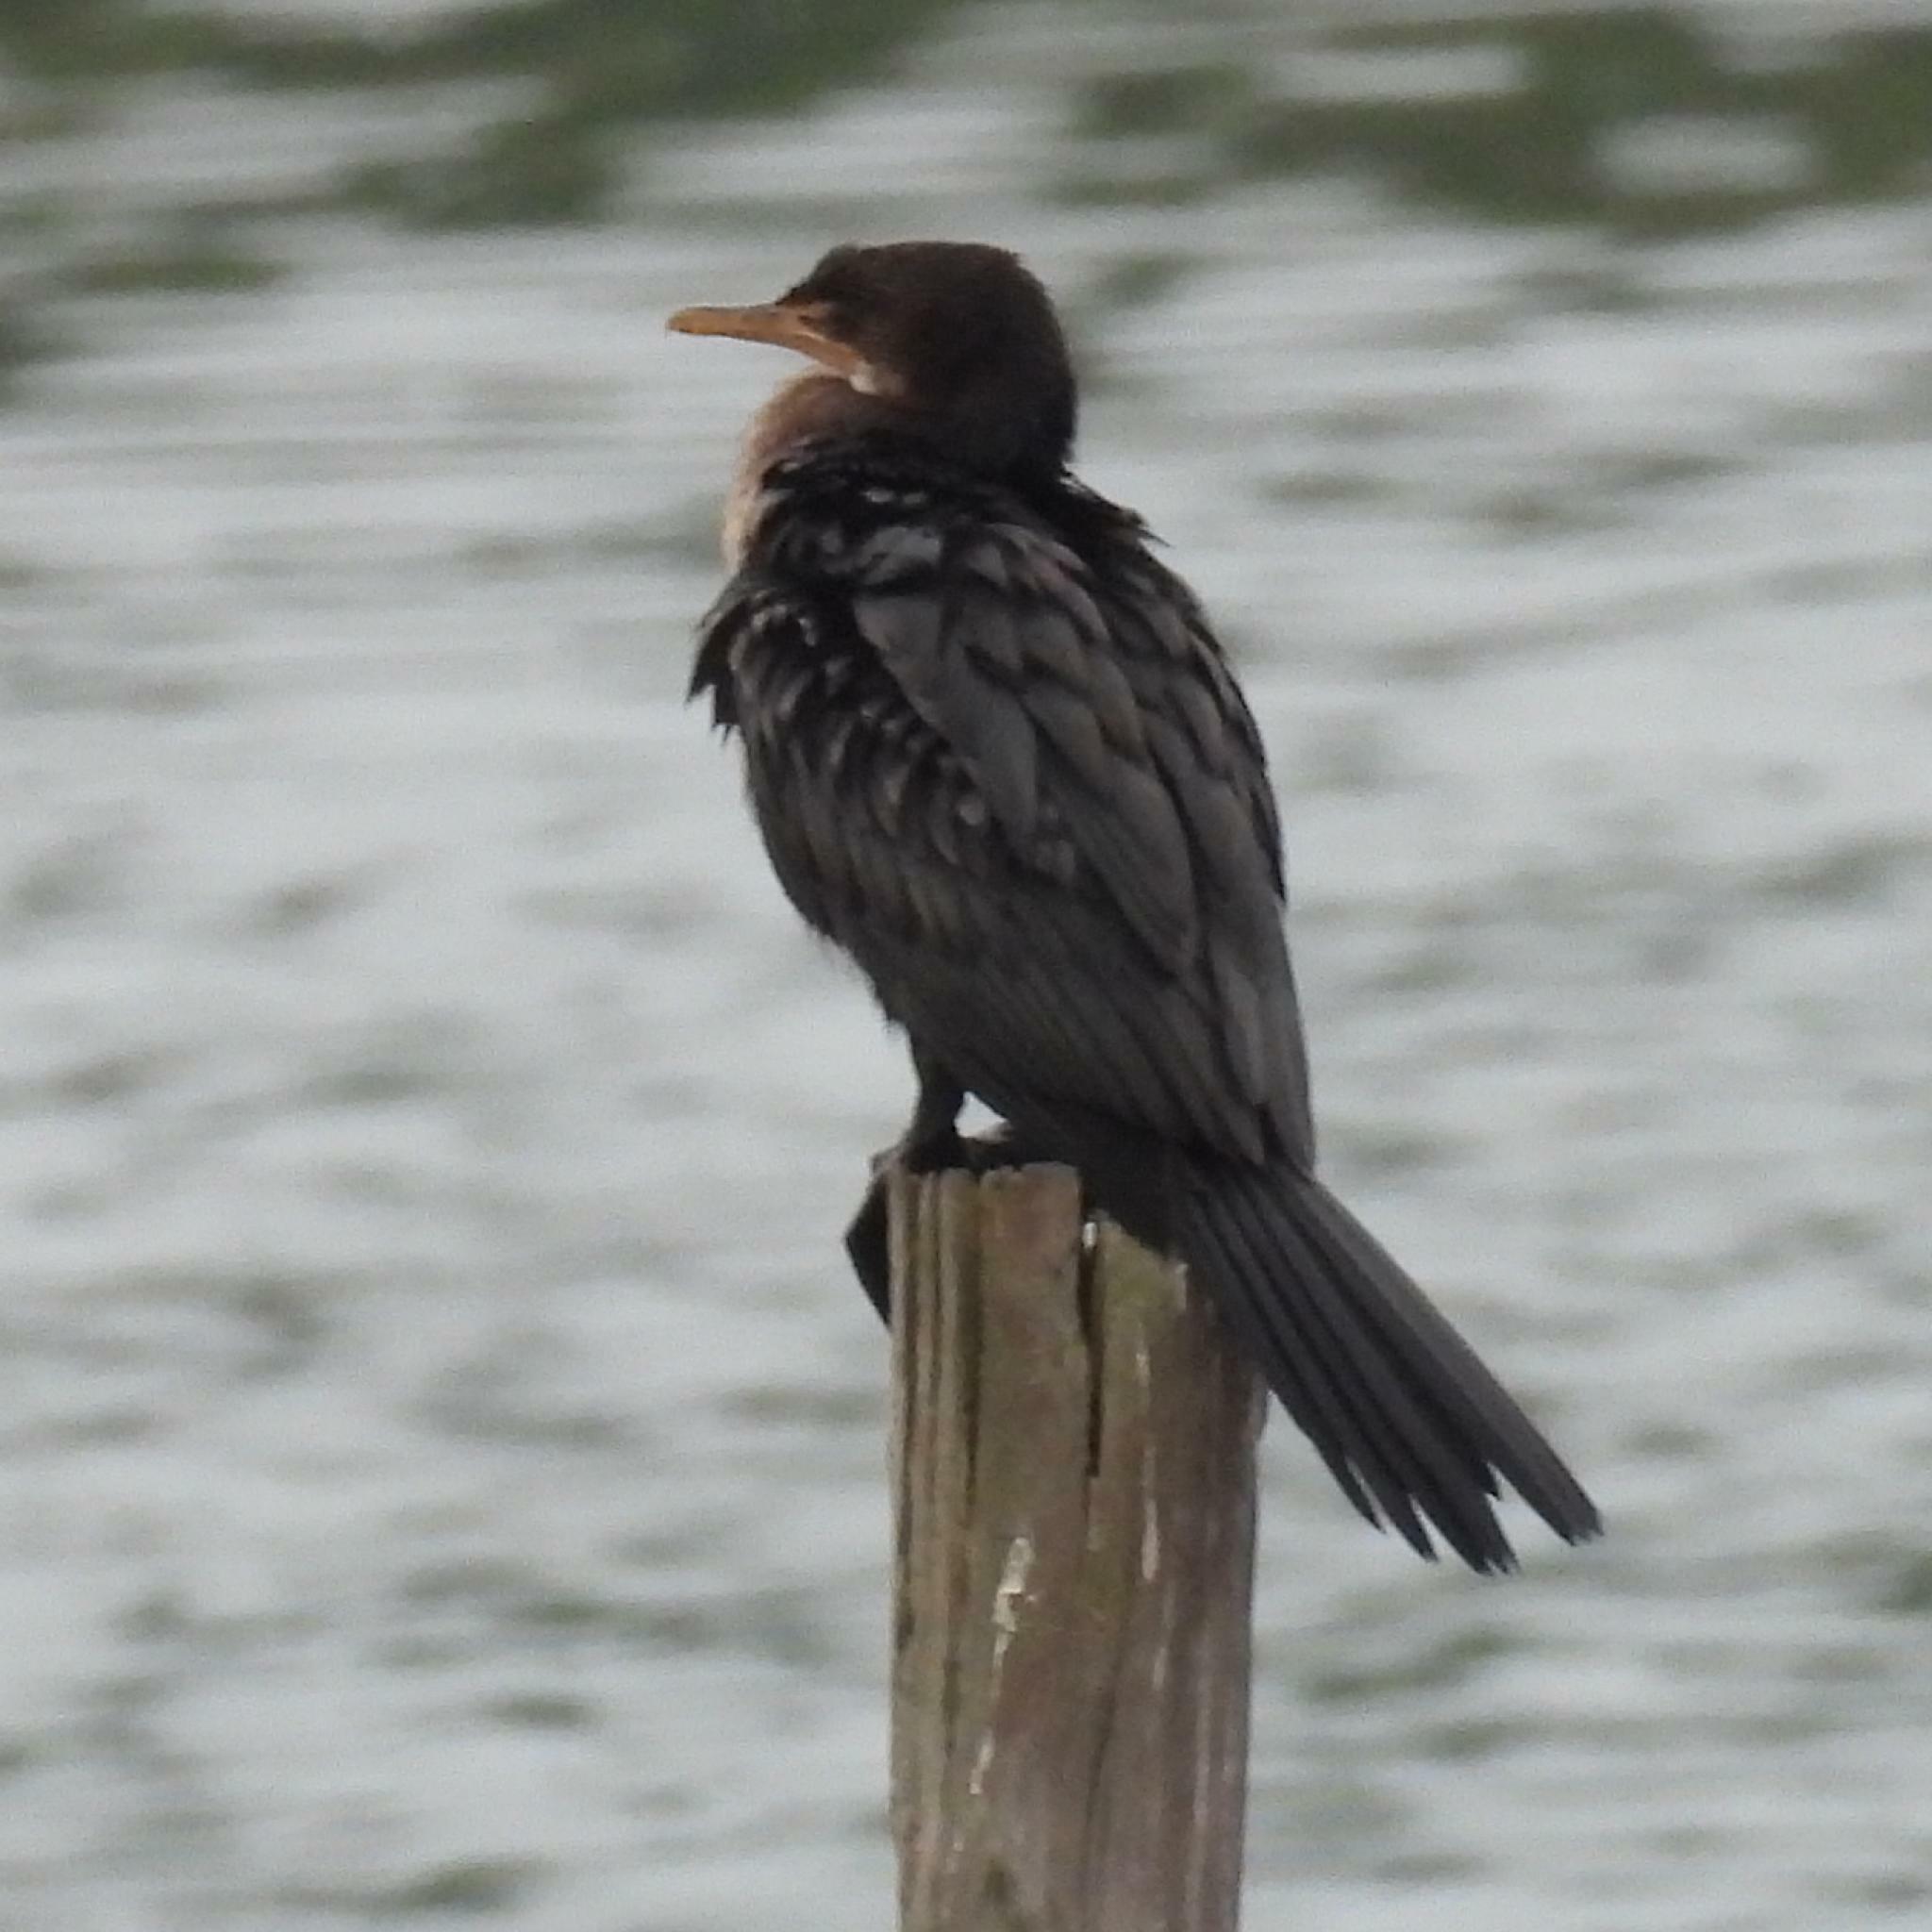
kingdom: Animalia
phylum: Chordata
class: Aves
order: Suliformes
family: Phalacrocoracidae
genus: Phalacrocorax
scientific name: Phalacrocorax capensis
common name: Cape cormorant
